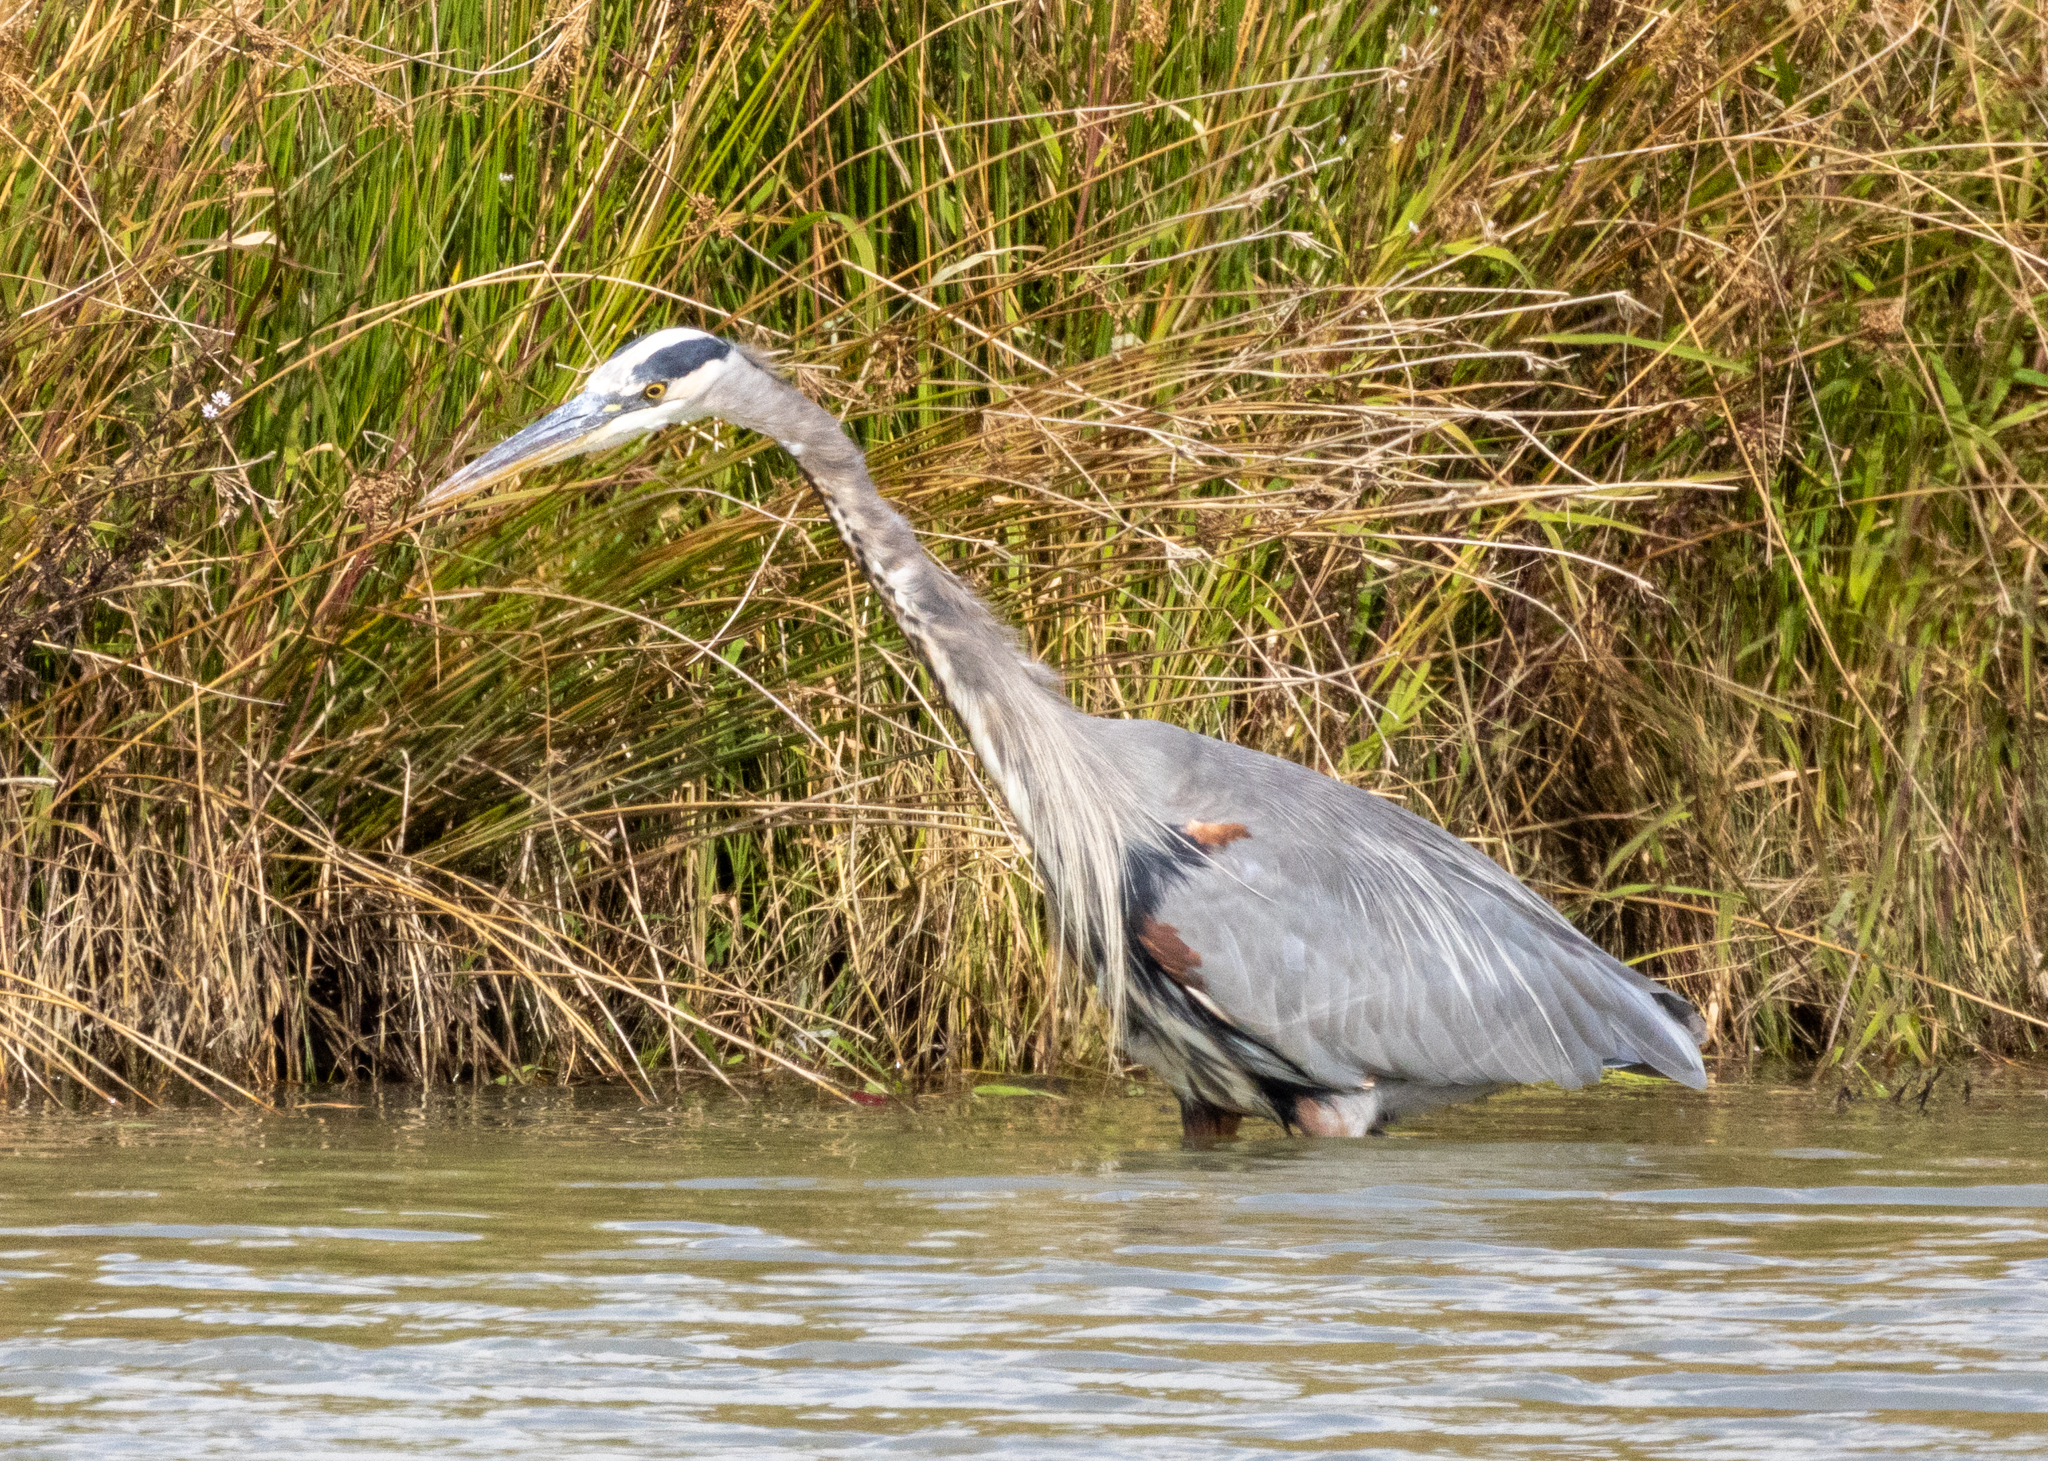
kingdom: Animalia
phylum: Chordata
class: Aves
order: Pelecaniformes
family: Ardeidae
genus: Ardea
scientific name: Ardea herodias
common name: Great blue heron
